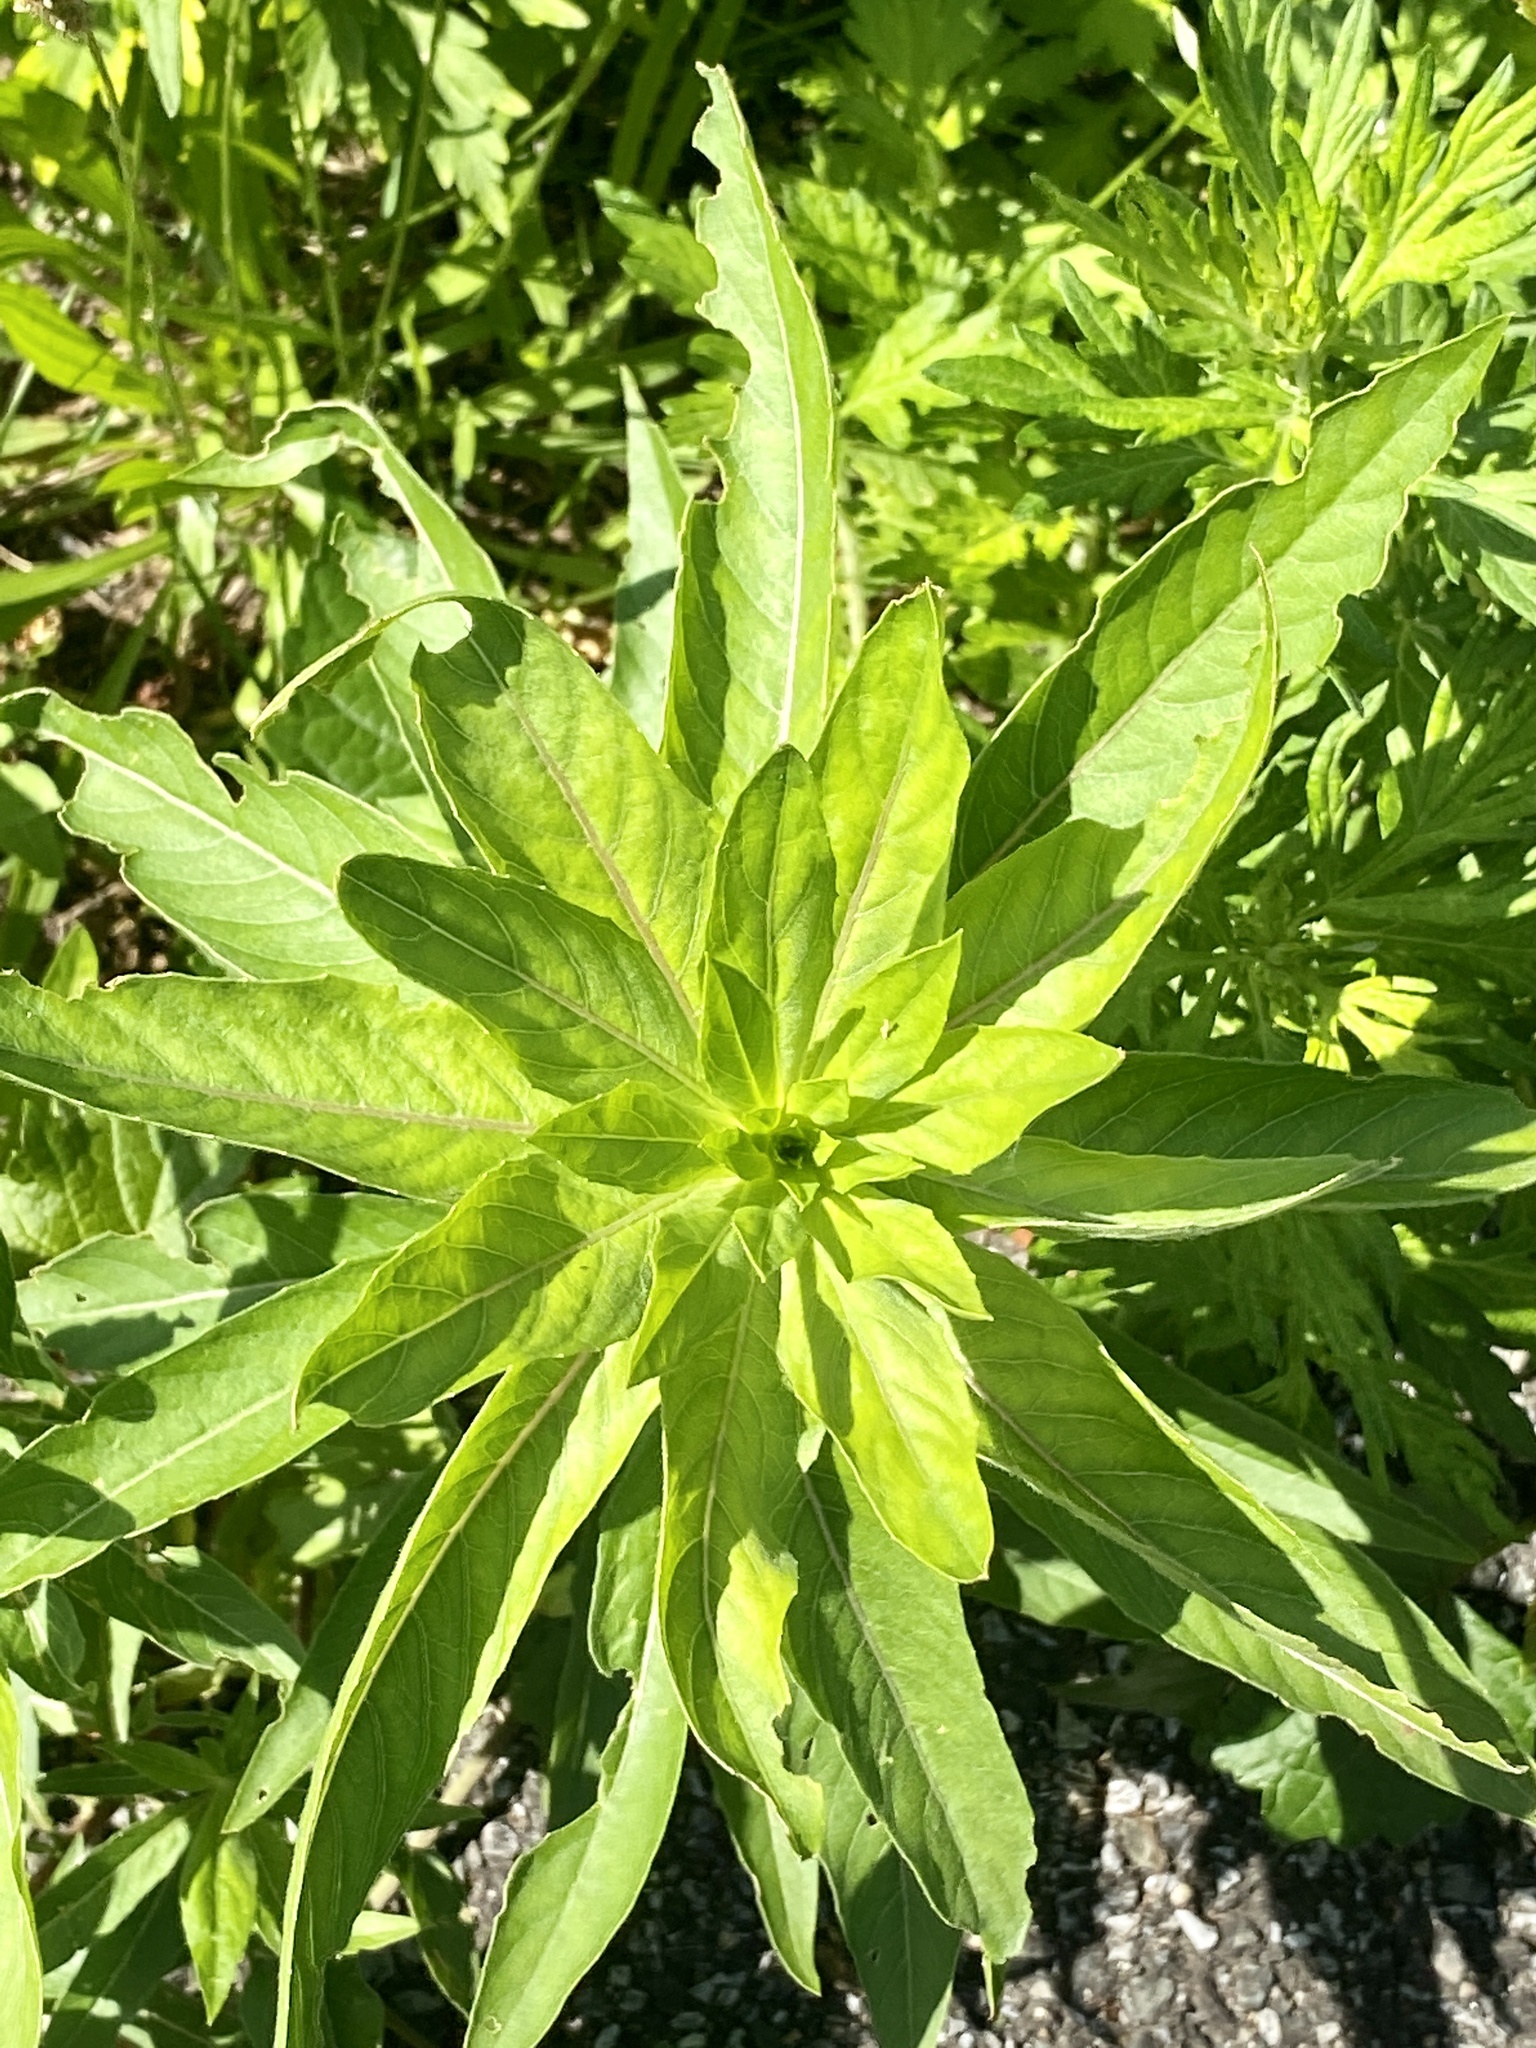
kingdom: Plantae
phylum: Tracheophyta
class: Magnoliopsida
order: Myrtales
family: Onagraceae
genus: Oenothera
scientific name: Oenothera biennis
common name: Common evening-primrose
